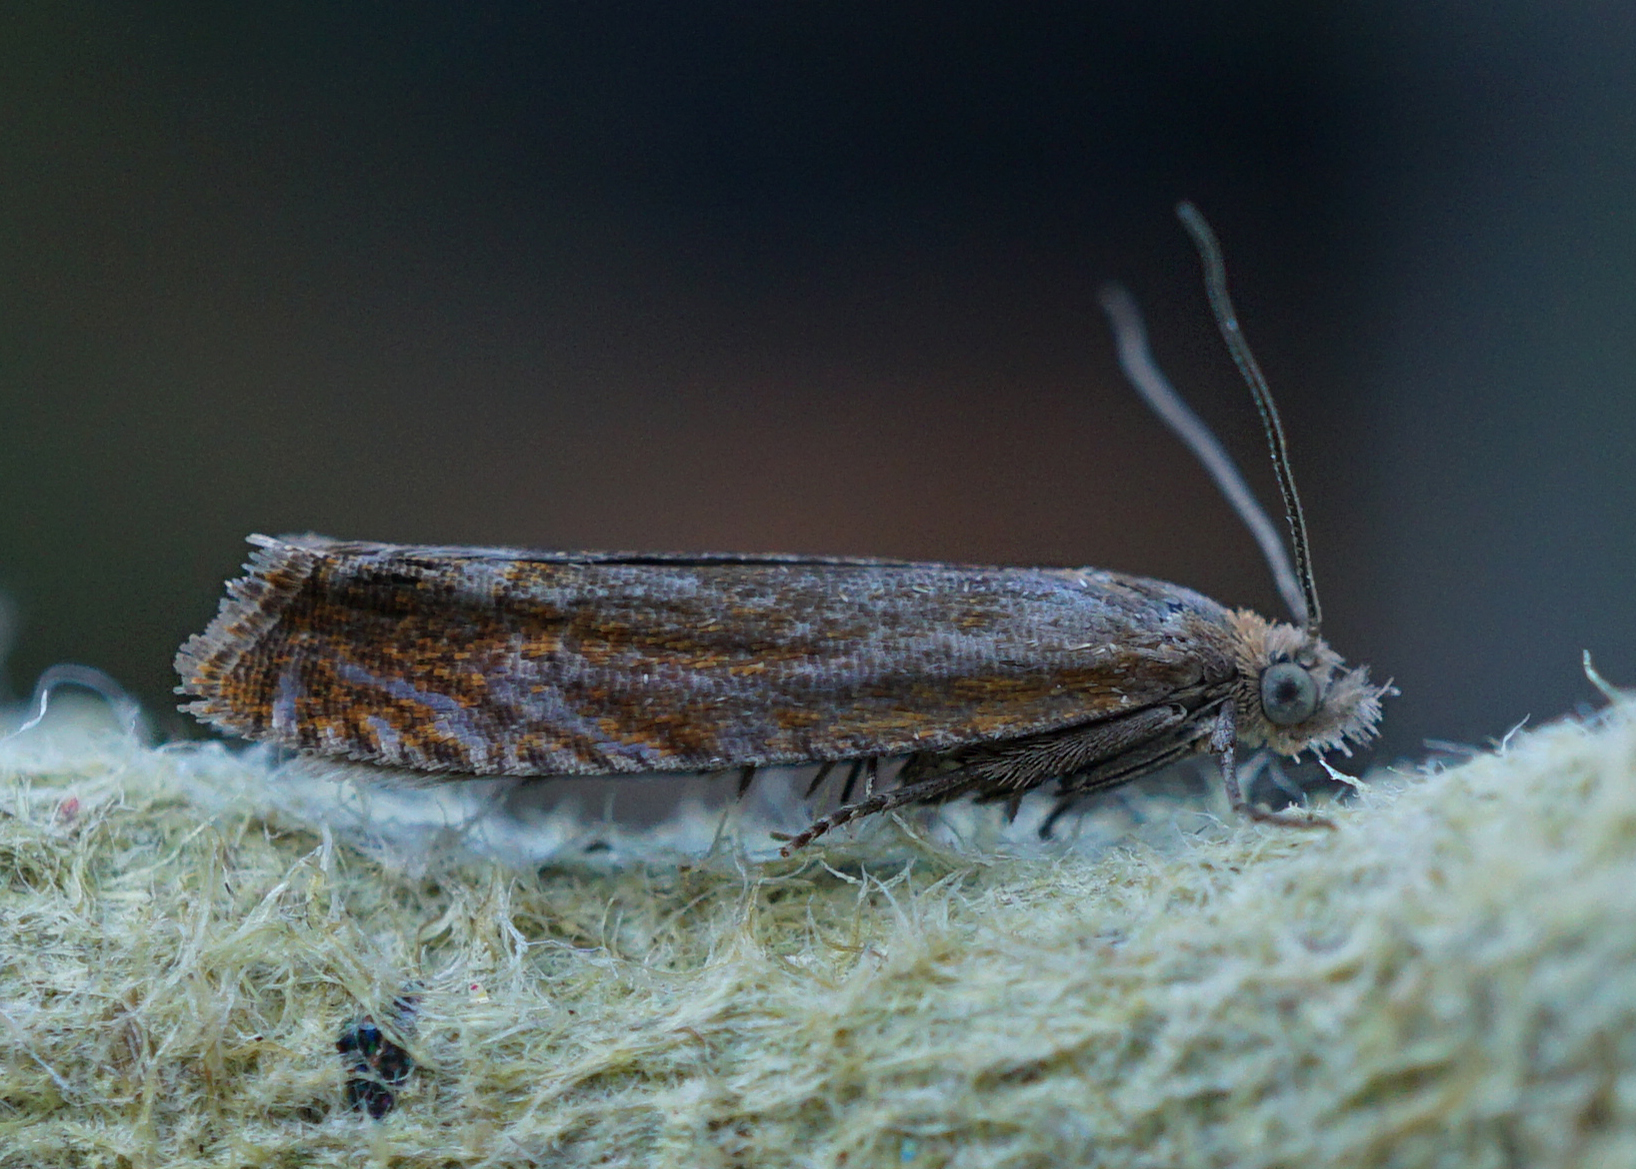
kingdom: Animalia
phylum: Arthropoda
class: Insecta
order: Lepidoptera
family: Tortricidae
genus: Lathronympha
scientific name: Lathronympha strigana
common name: Red piercer
